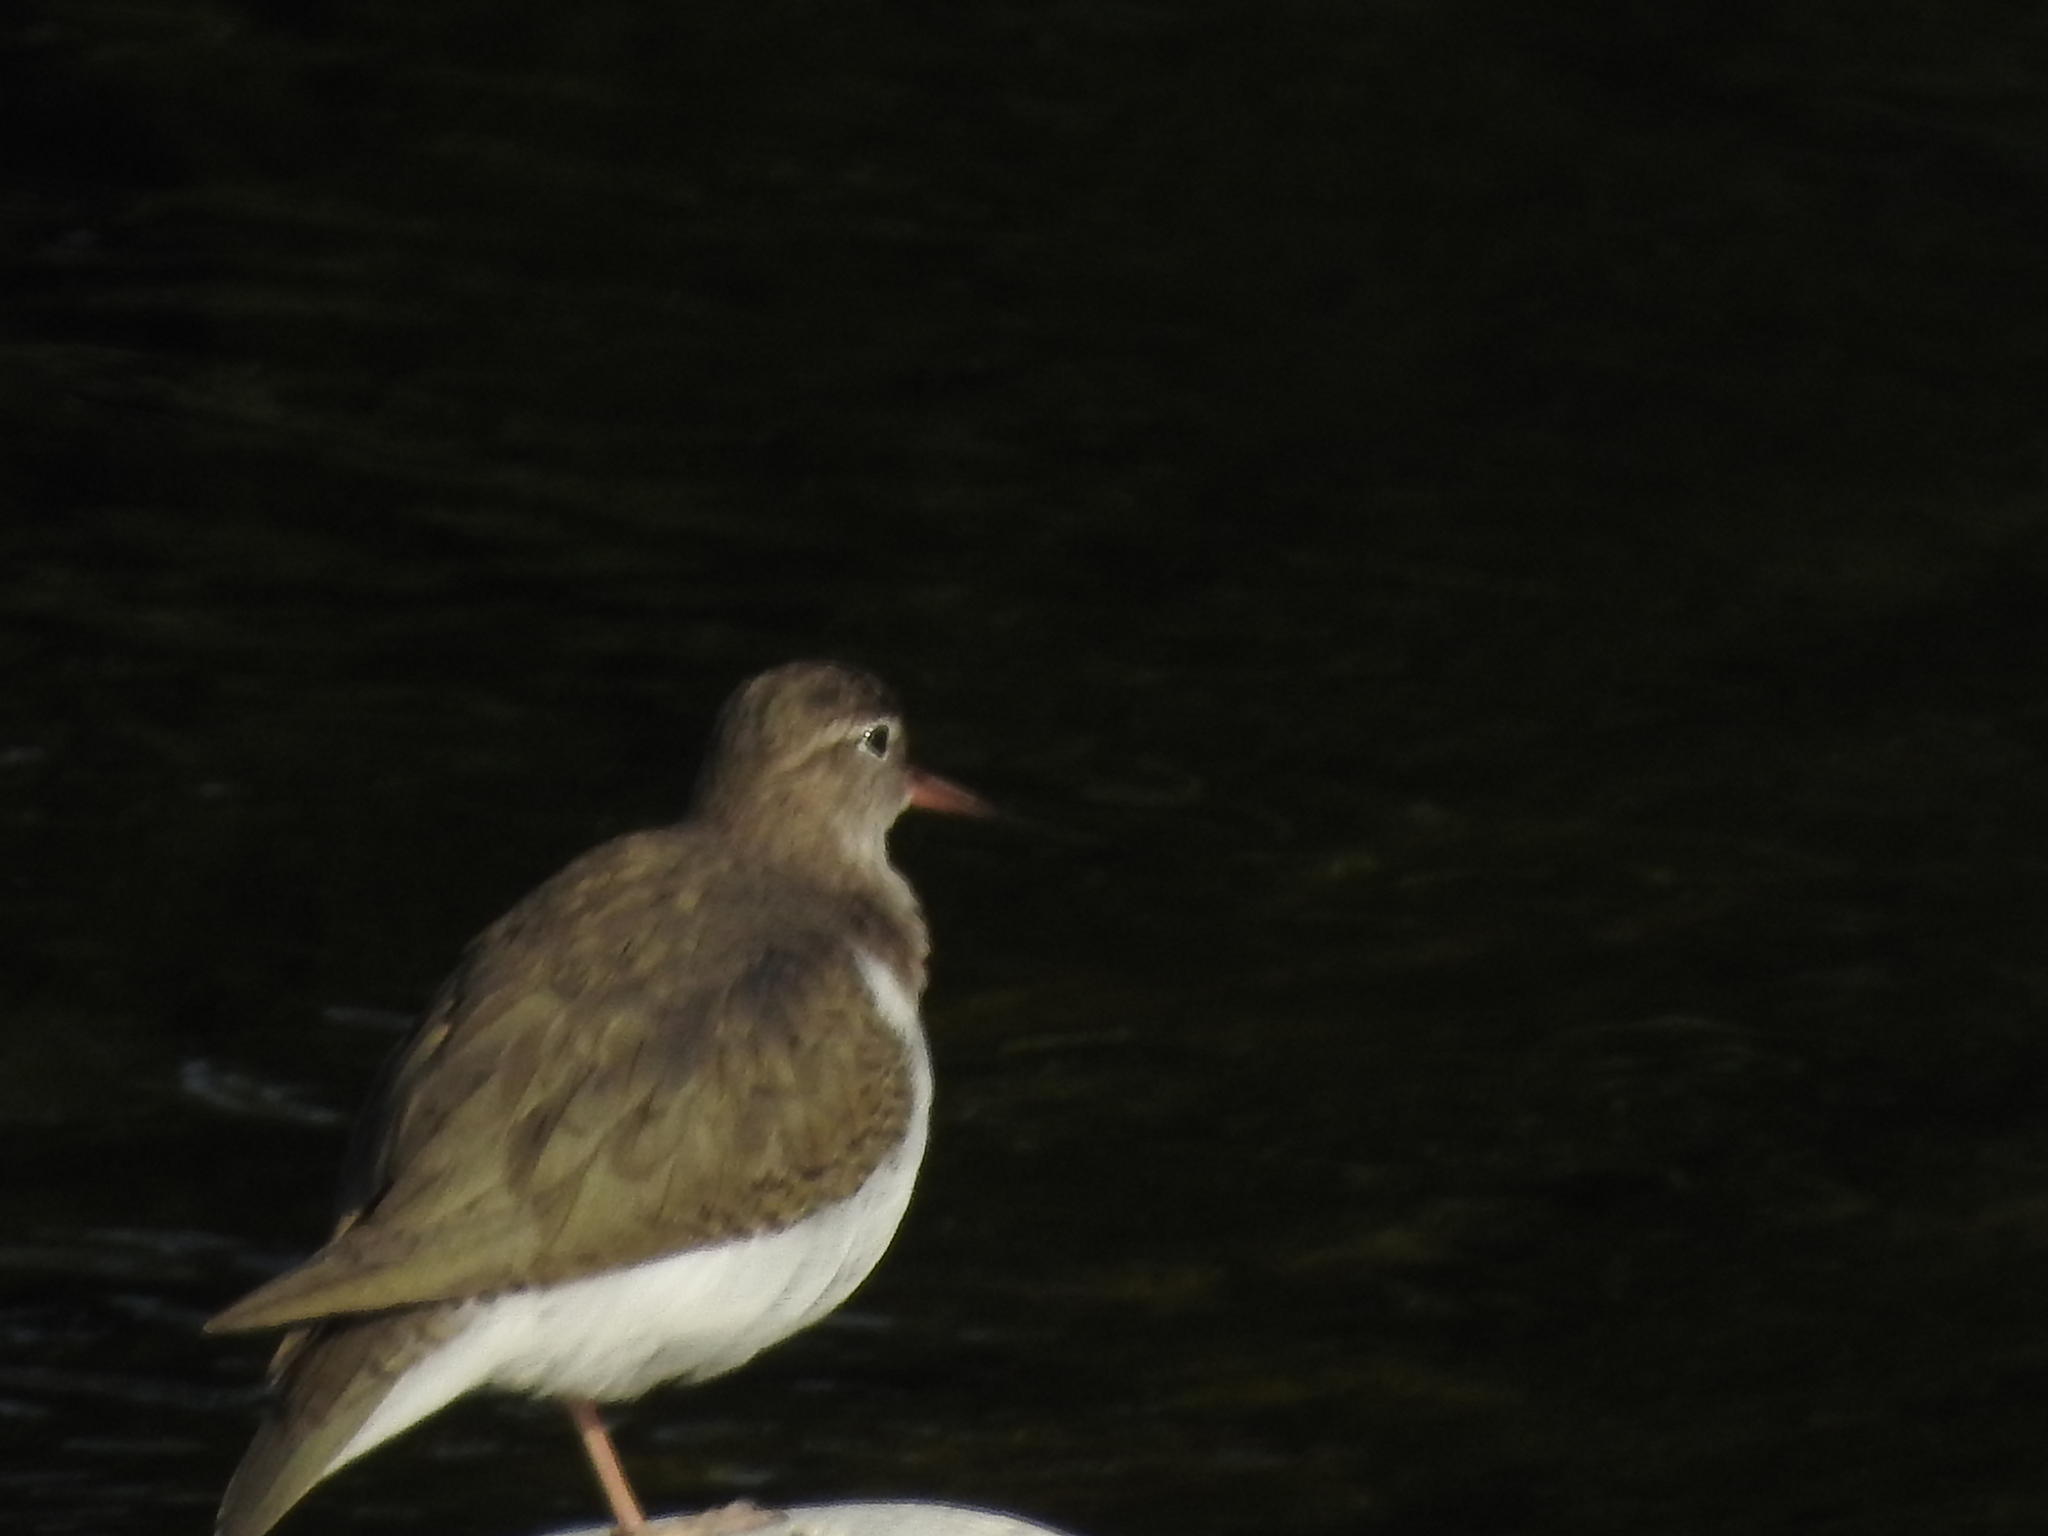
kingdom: Animalia
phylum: Chordata
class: Aves
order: Charadriiformes
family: Scolopacidae
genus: Actitis
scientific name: Actitis macularius
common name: Spotted sandpiper
